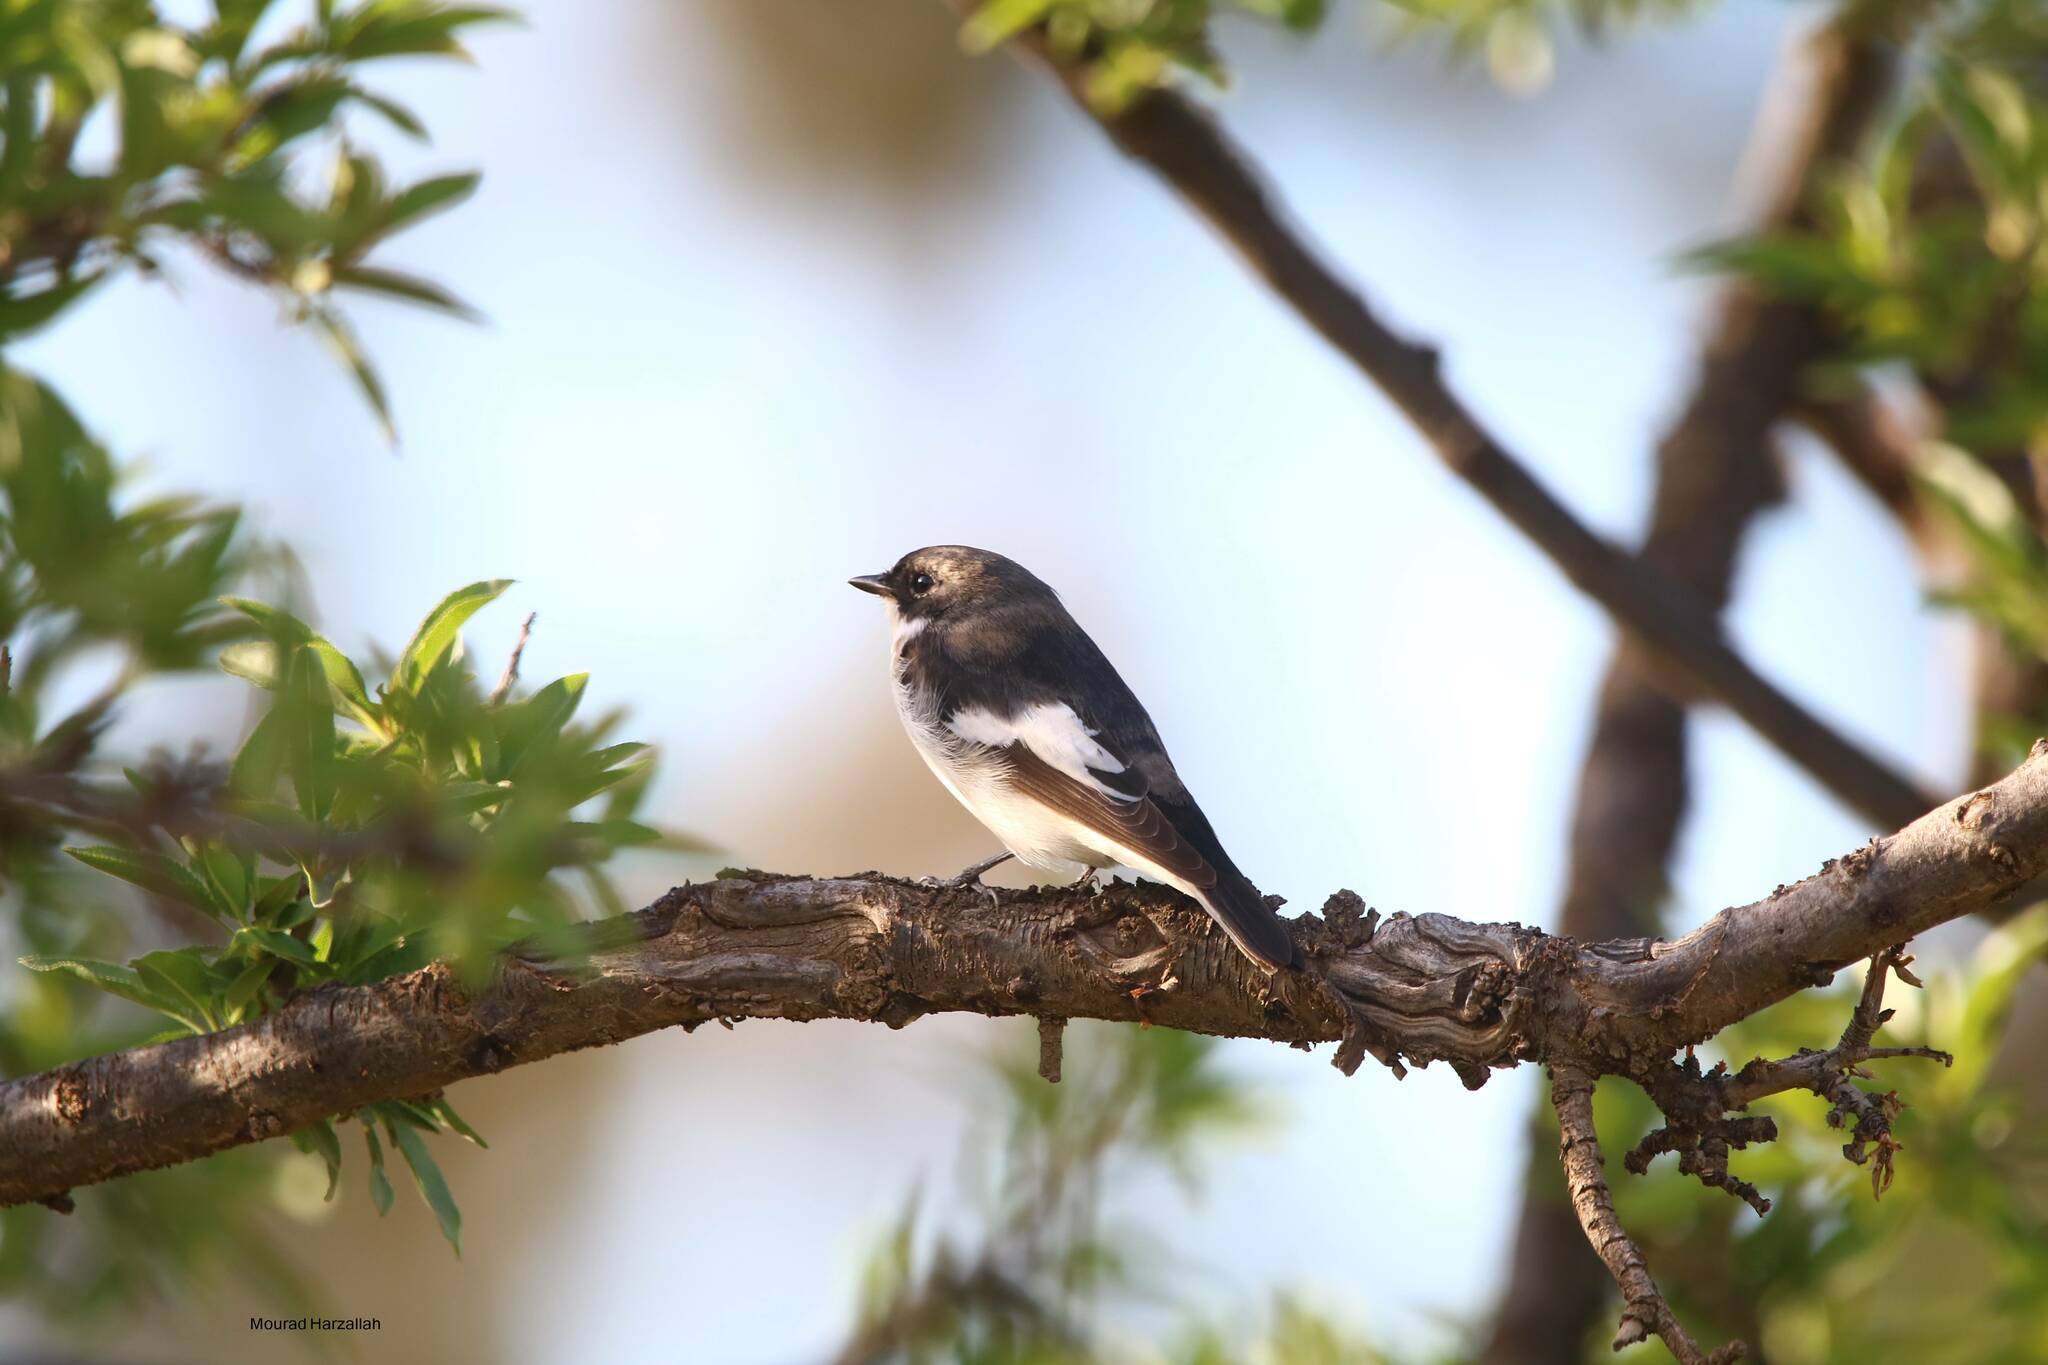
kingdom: Animalia
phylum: Chordata
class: Aves
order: Passeriformes
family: Muscicapidae
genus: Ficedula
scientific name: Ficedula hypoleuca
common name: European pied flycatcher
